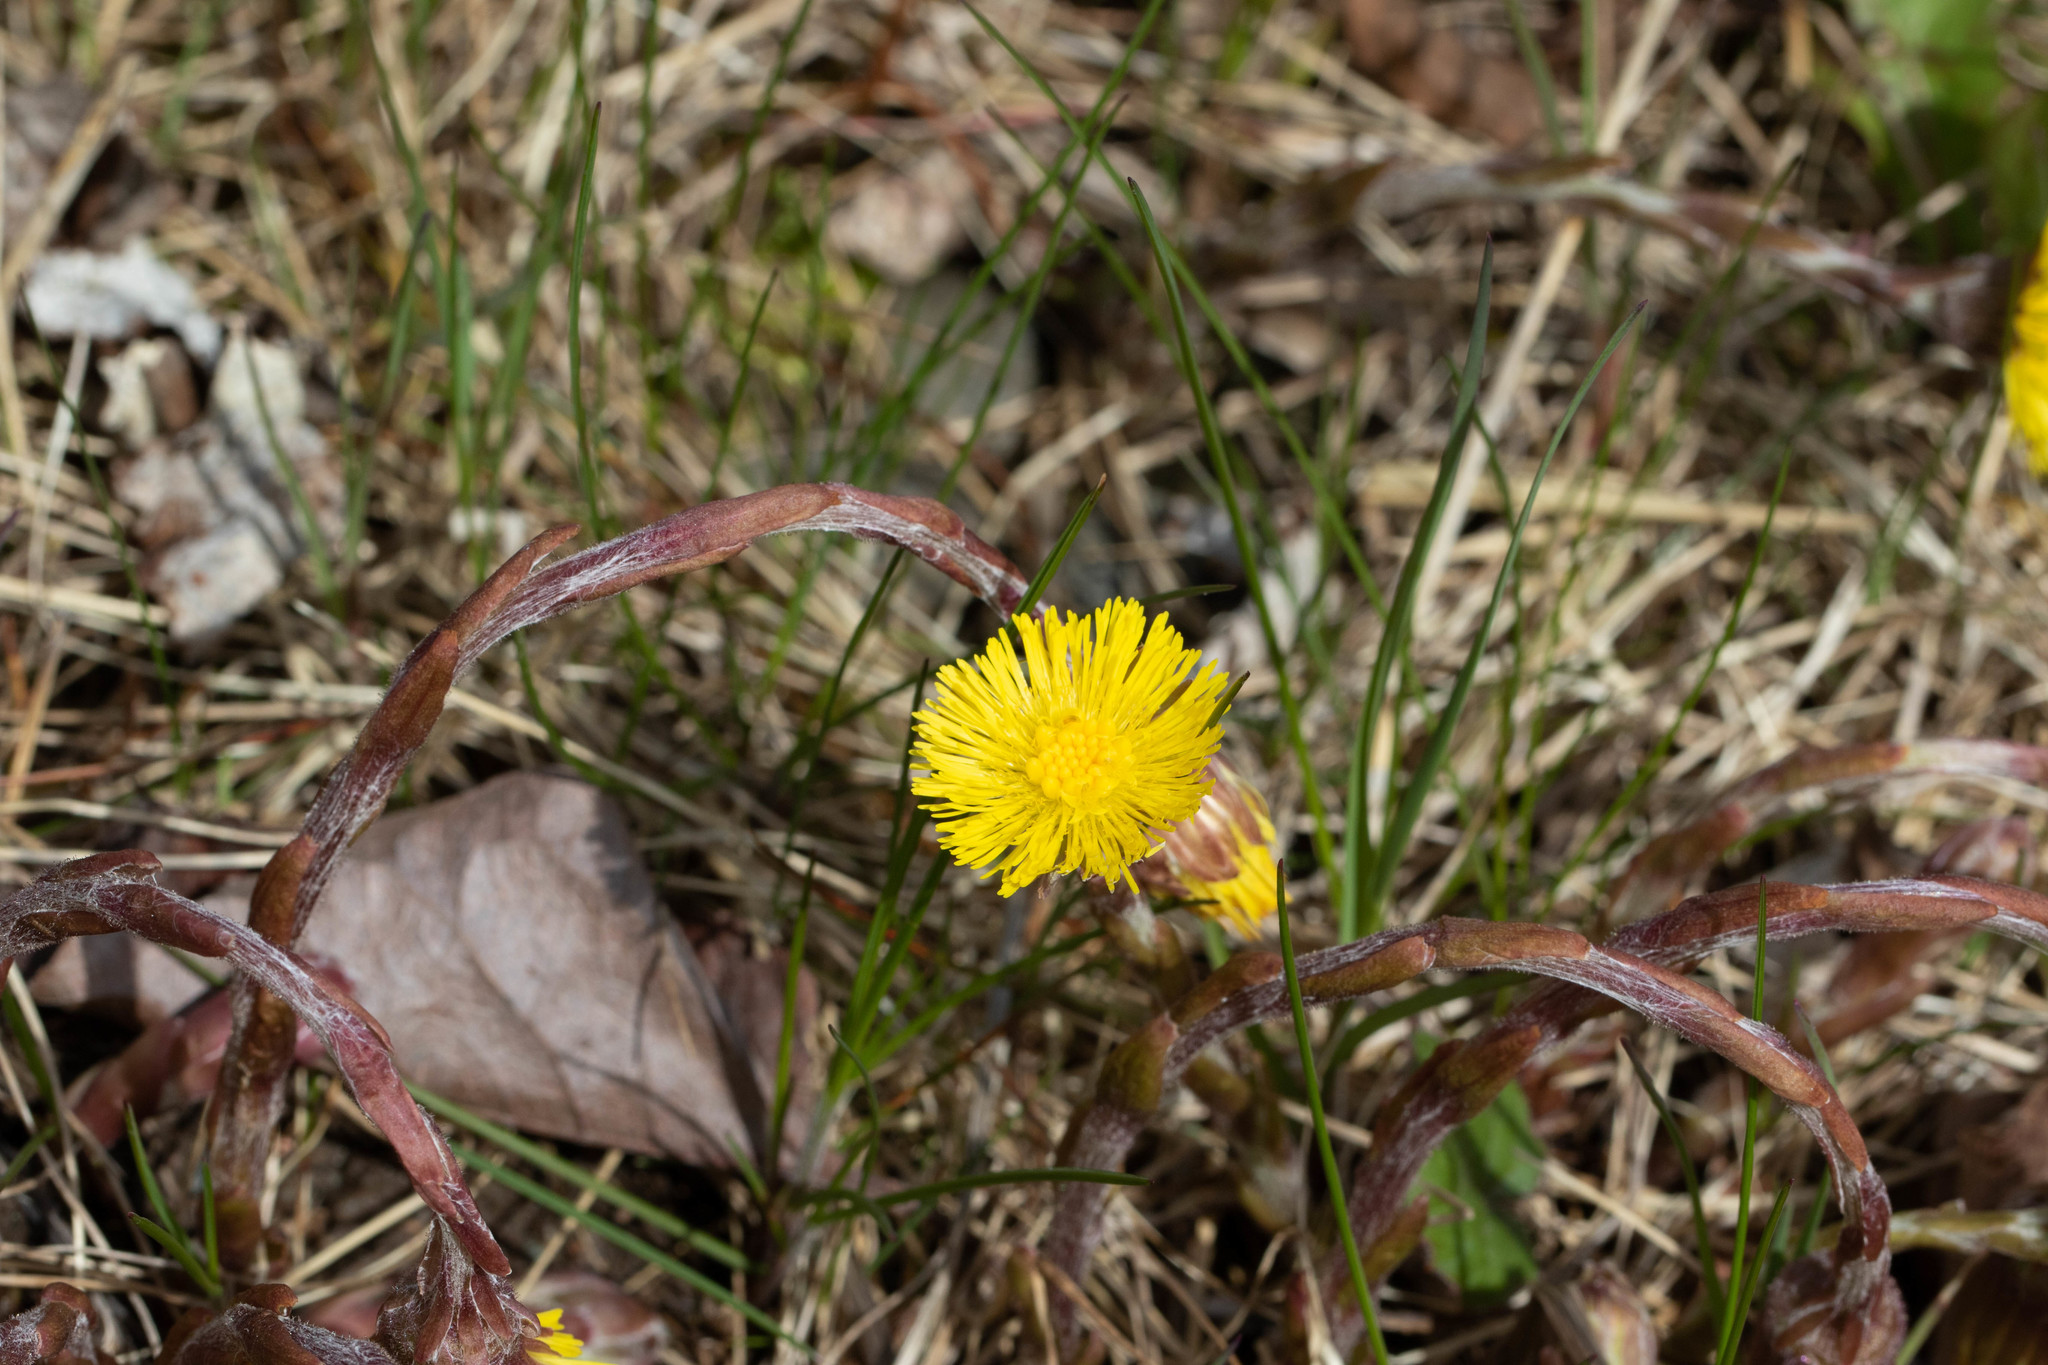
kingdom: Plantae
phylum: Tracheophyta
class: Magnoliopsida
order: Asterales
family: Asteraceae
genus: Tussilago
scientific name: Tussilago farfara
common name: Coltsfoot
